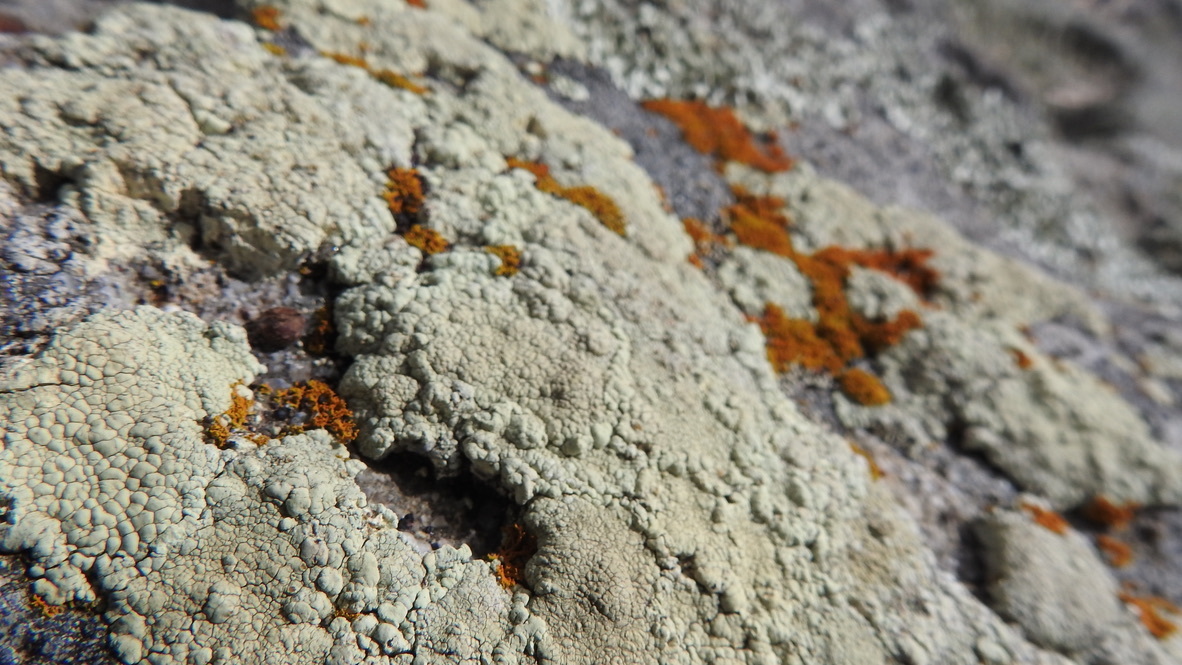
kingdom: Fungi
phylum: Ascomycota
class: Lecanoromycetes
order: Lecanorales
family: Lecanoraceae
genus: Protoparmeliopsis
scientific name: Protoparmeliopsis pinguis
